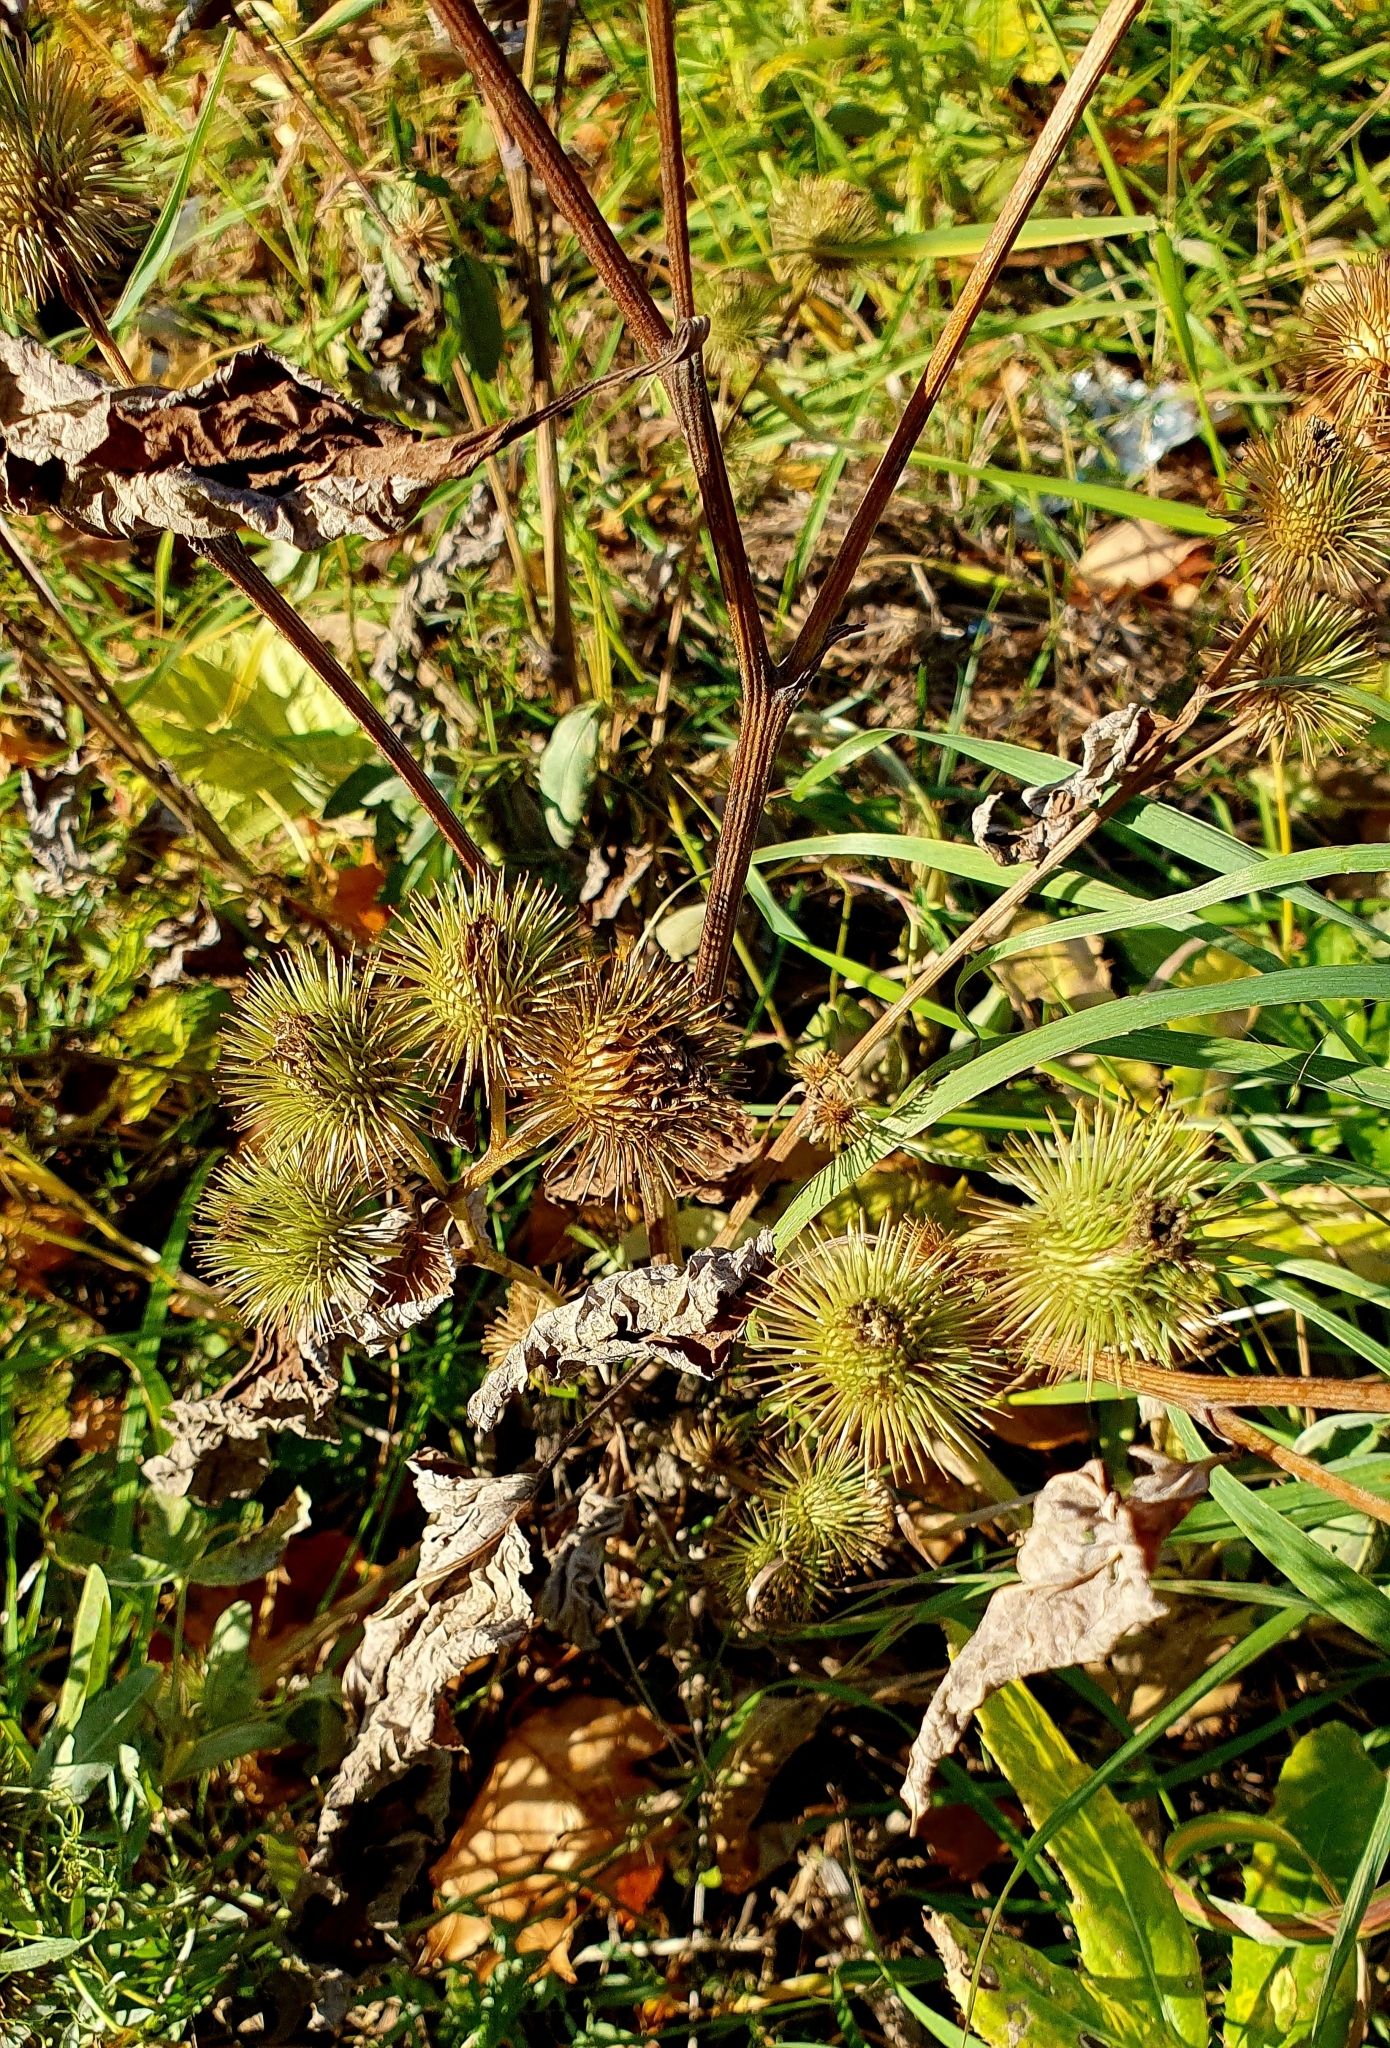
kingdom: Plantae
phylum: Tracheophyta
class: Magnoliopsida
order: Asterales
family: Asteraceae
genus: Arctium
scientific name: Arctium lappa
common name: Greater burdock
